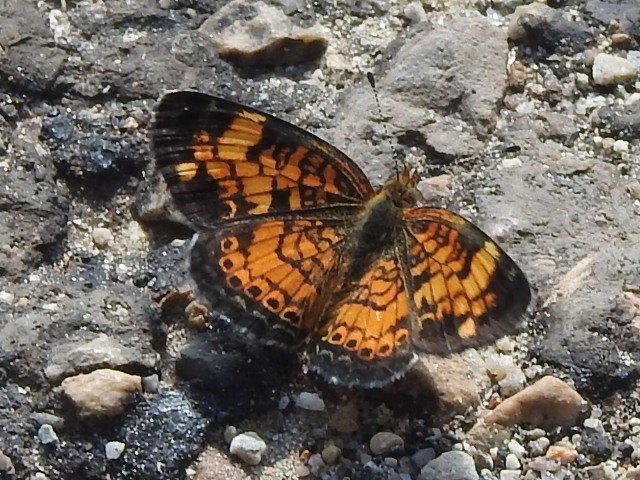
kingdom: Animalia
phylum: Arthropoda
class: Insecta
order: Lepidoptera
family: Nymphalidae
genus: Phyciodes
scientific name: Phyciodes tharos
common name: Pearl crescent
